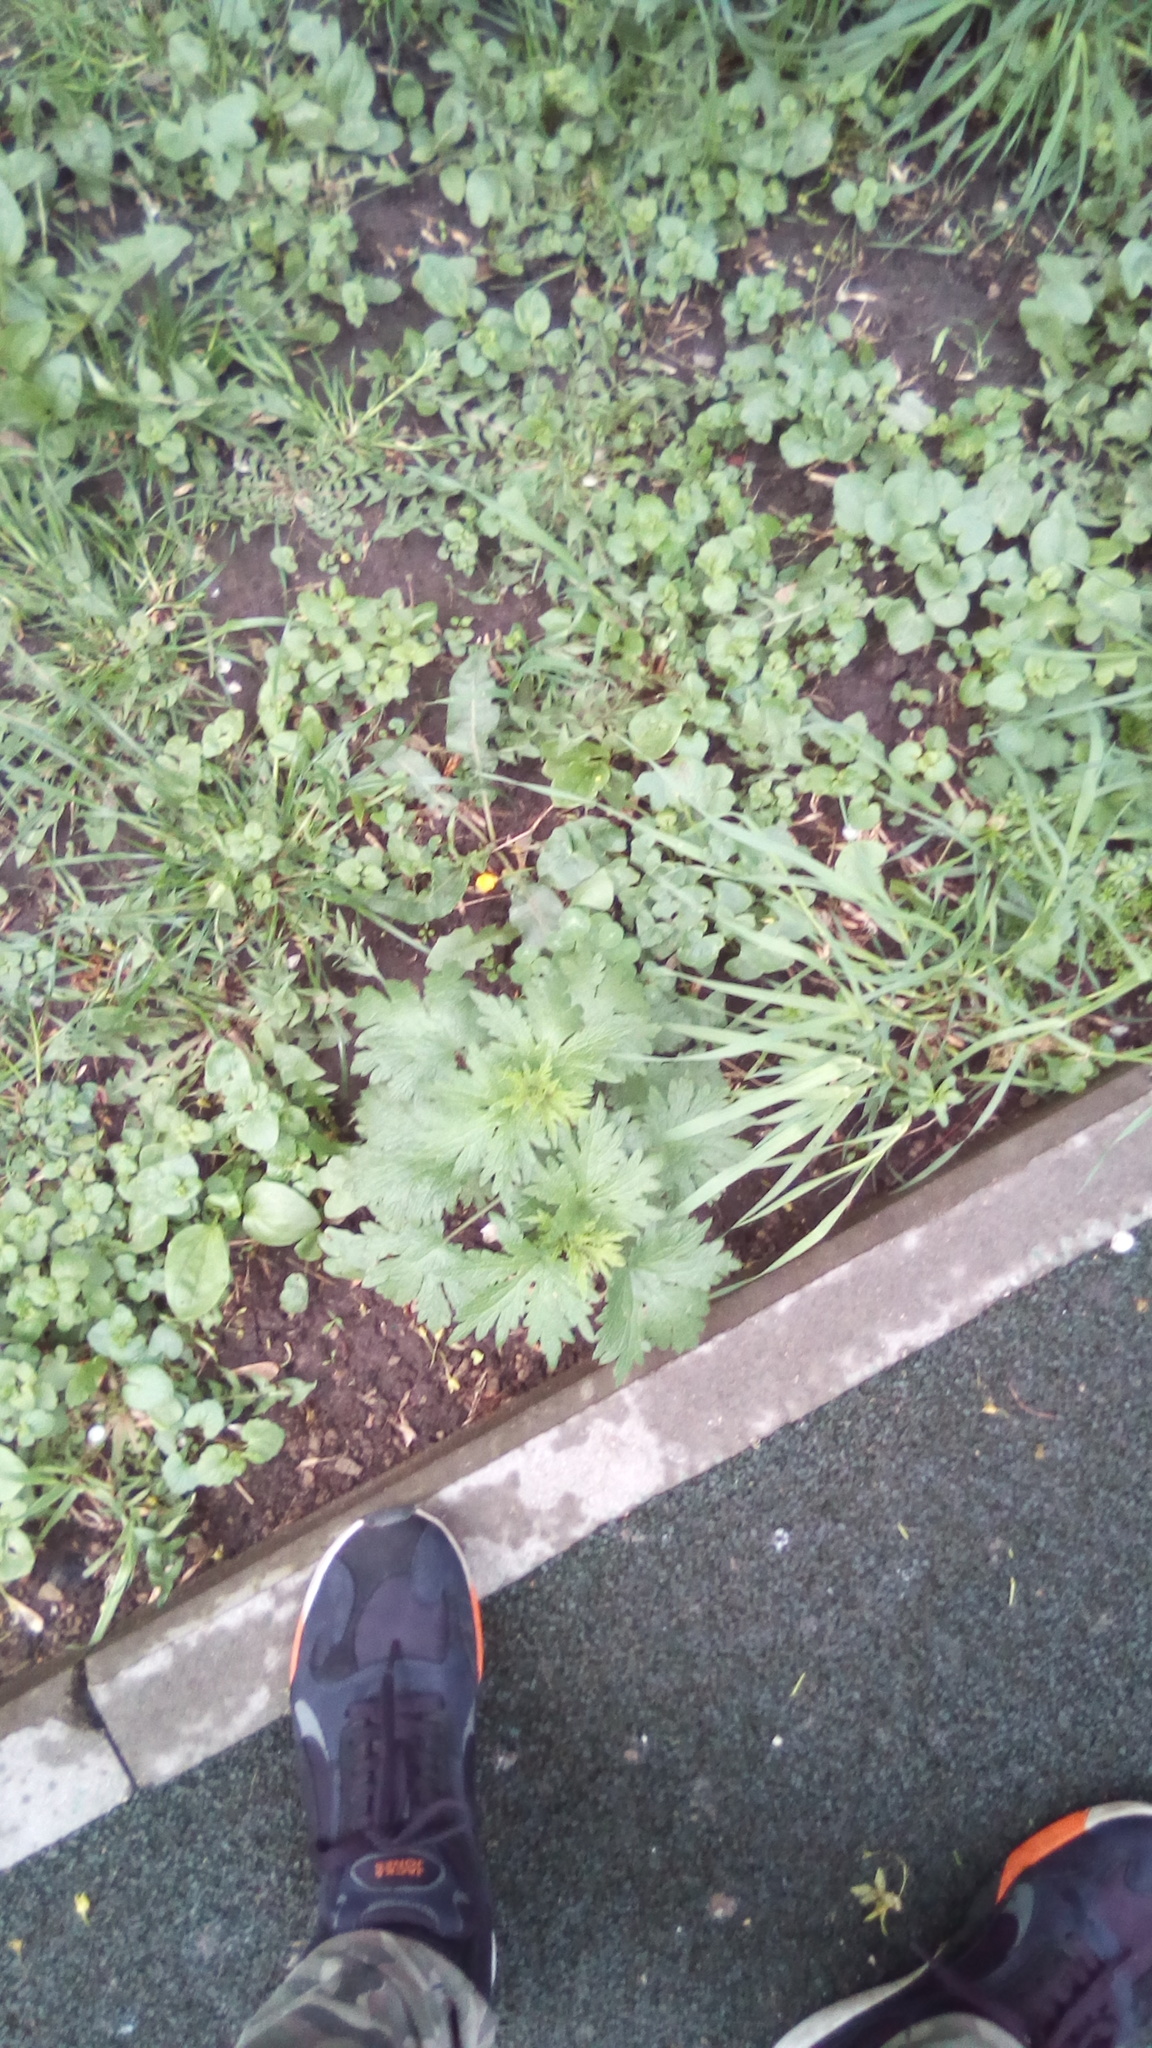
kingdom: Plantae
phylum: Tracheophyta
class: Magnoliopsida
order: Lamiales
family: Lamiaceae
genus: Leonurus
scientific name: Leonurus quinquelobatus
